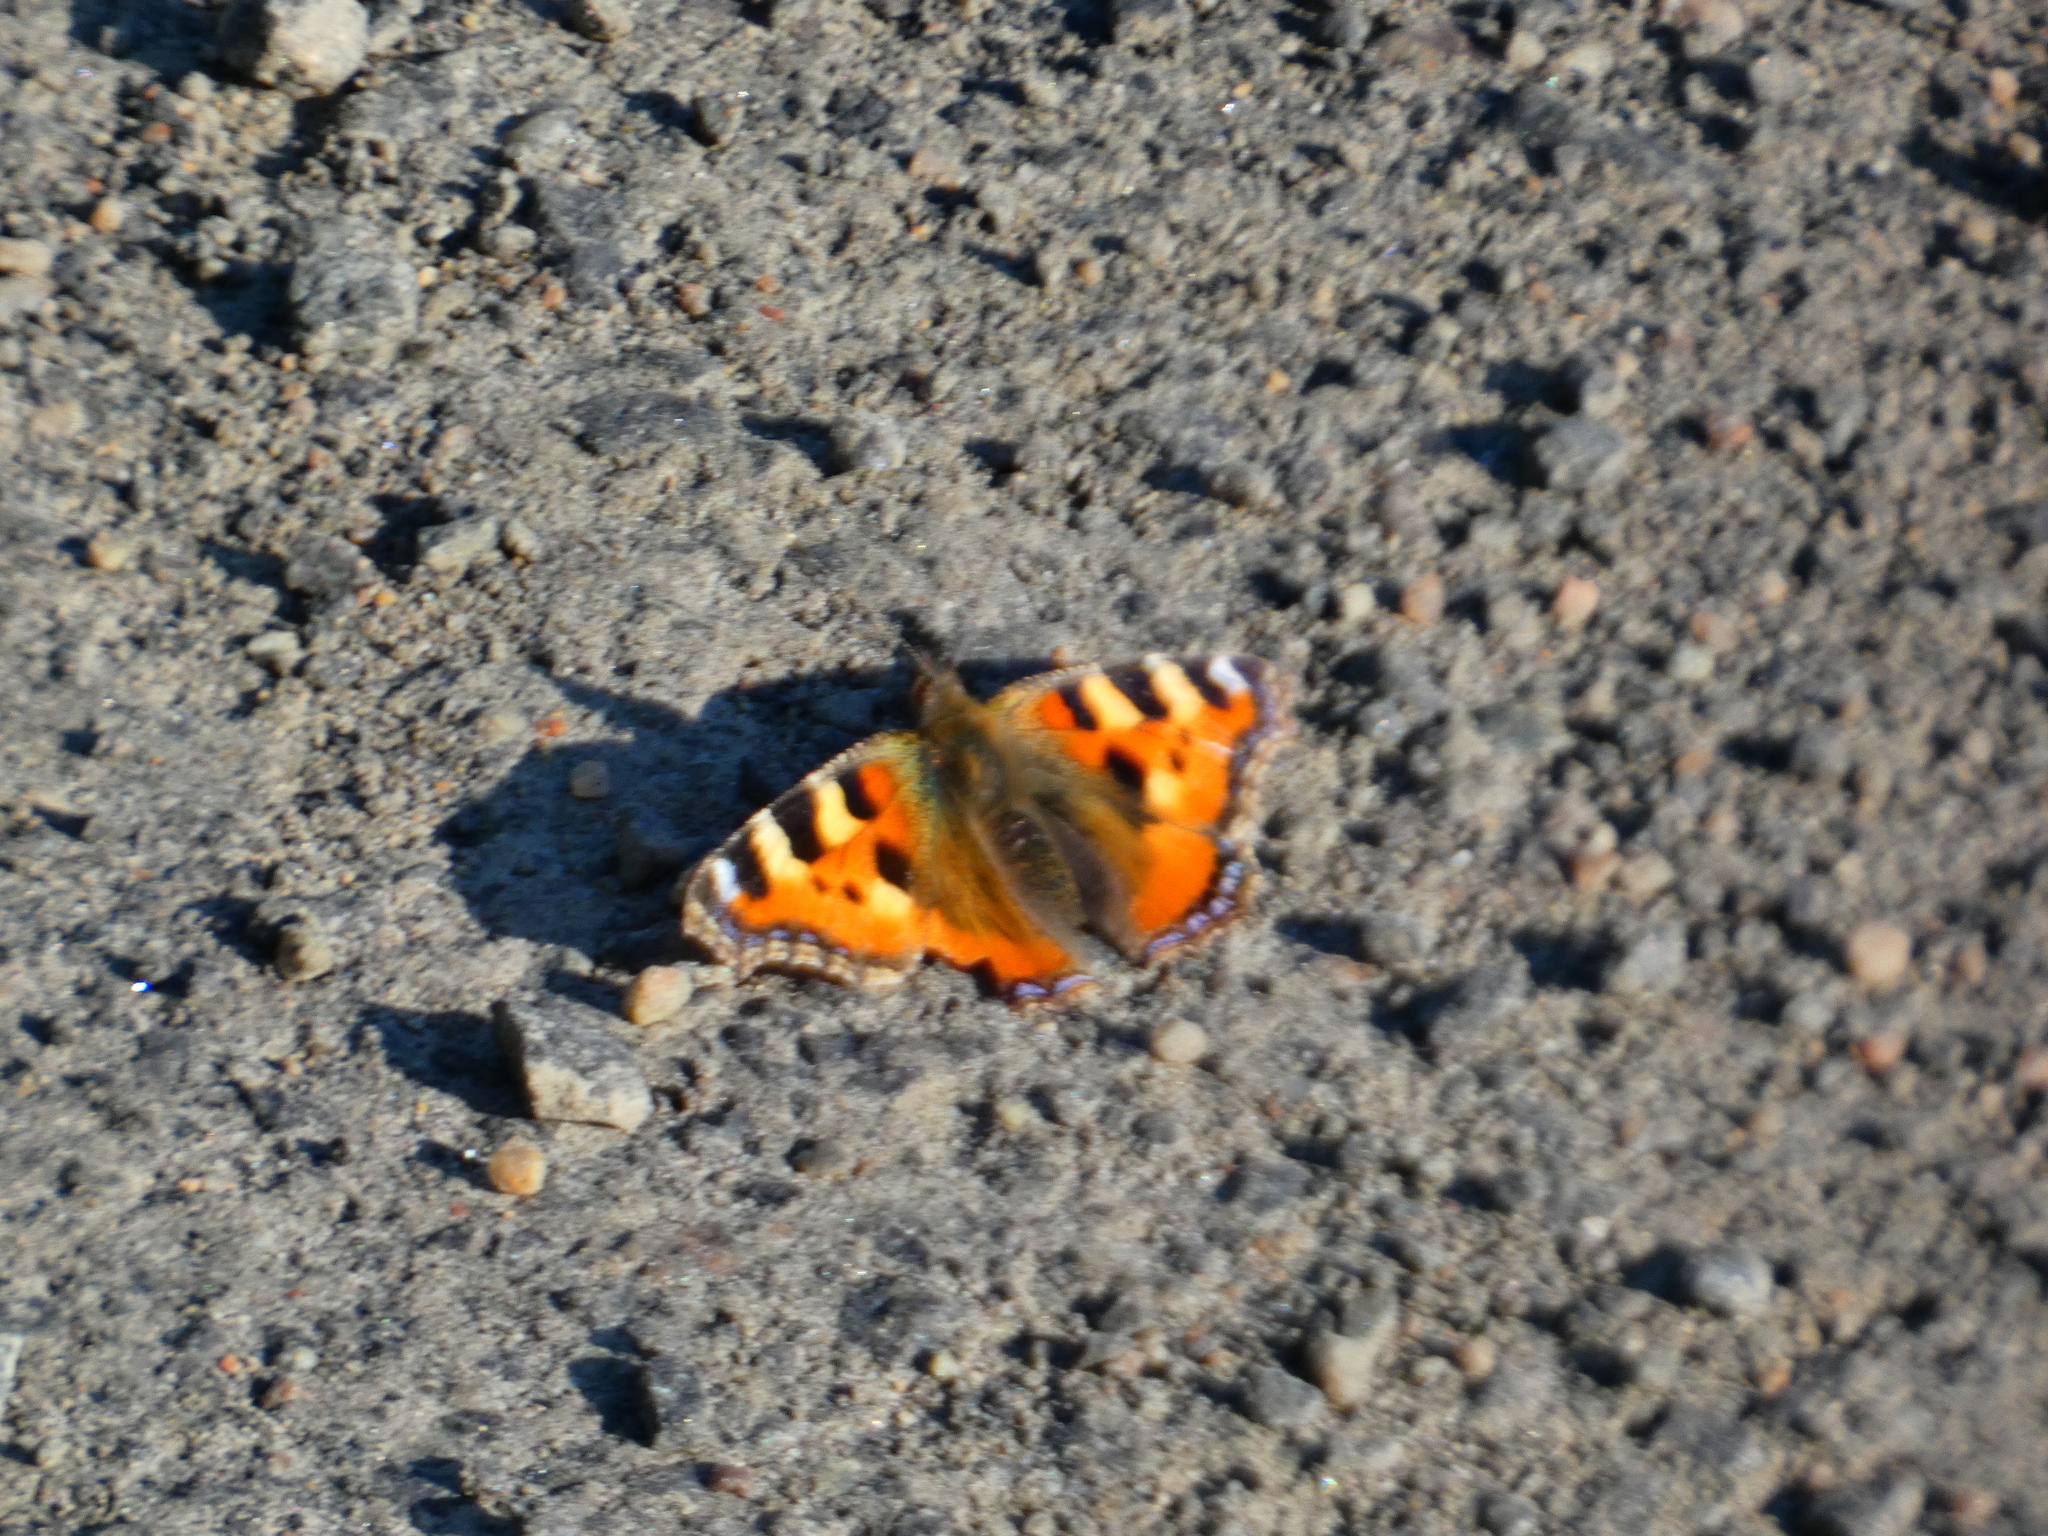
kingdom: Animalia
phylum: Arthropoda
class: Insecta
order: Lepidoptera
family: Nymphalidae
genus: Aglais
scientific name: Aglais urticae
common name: Small tortoiseshell
